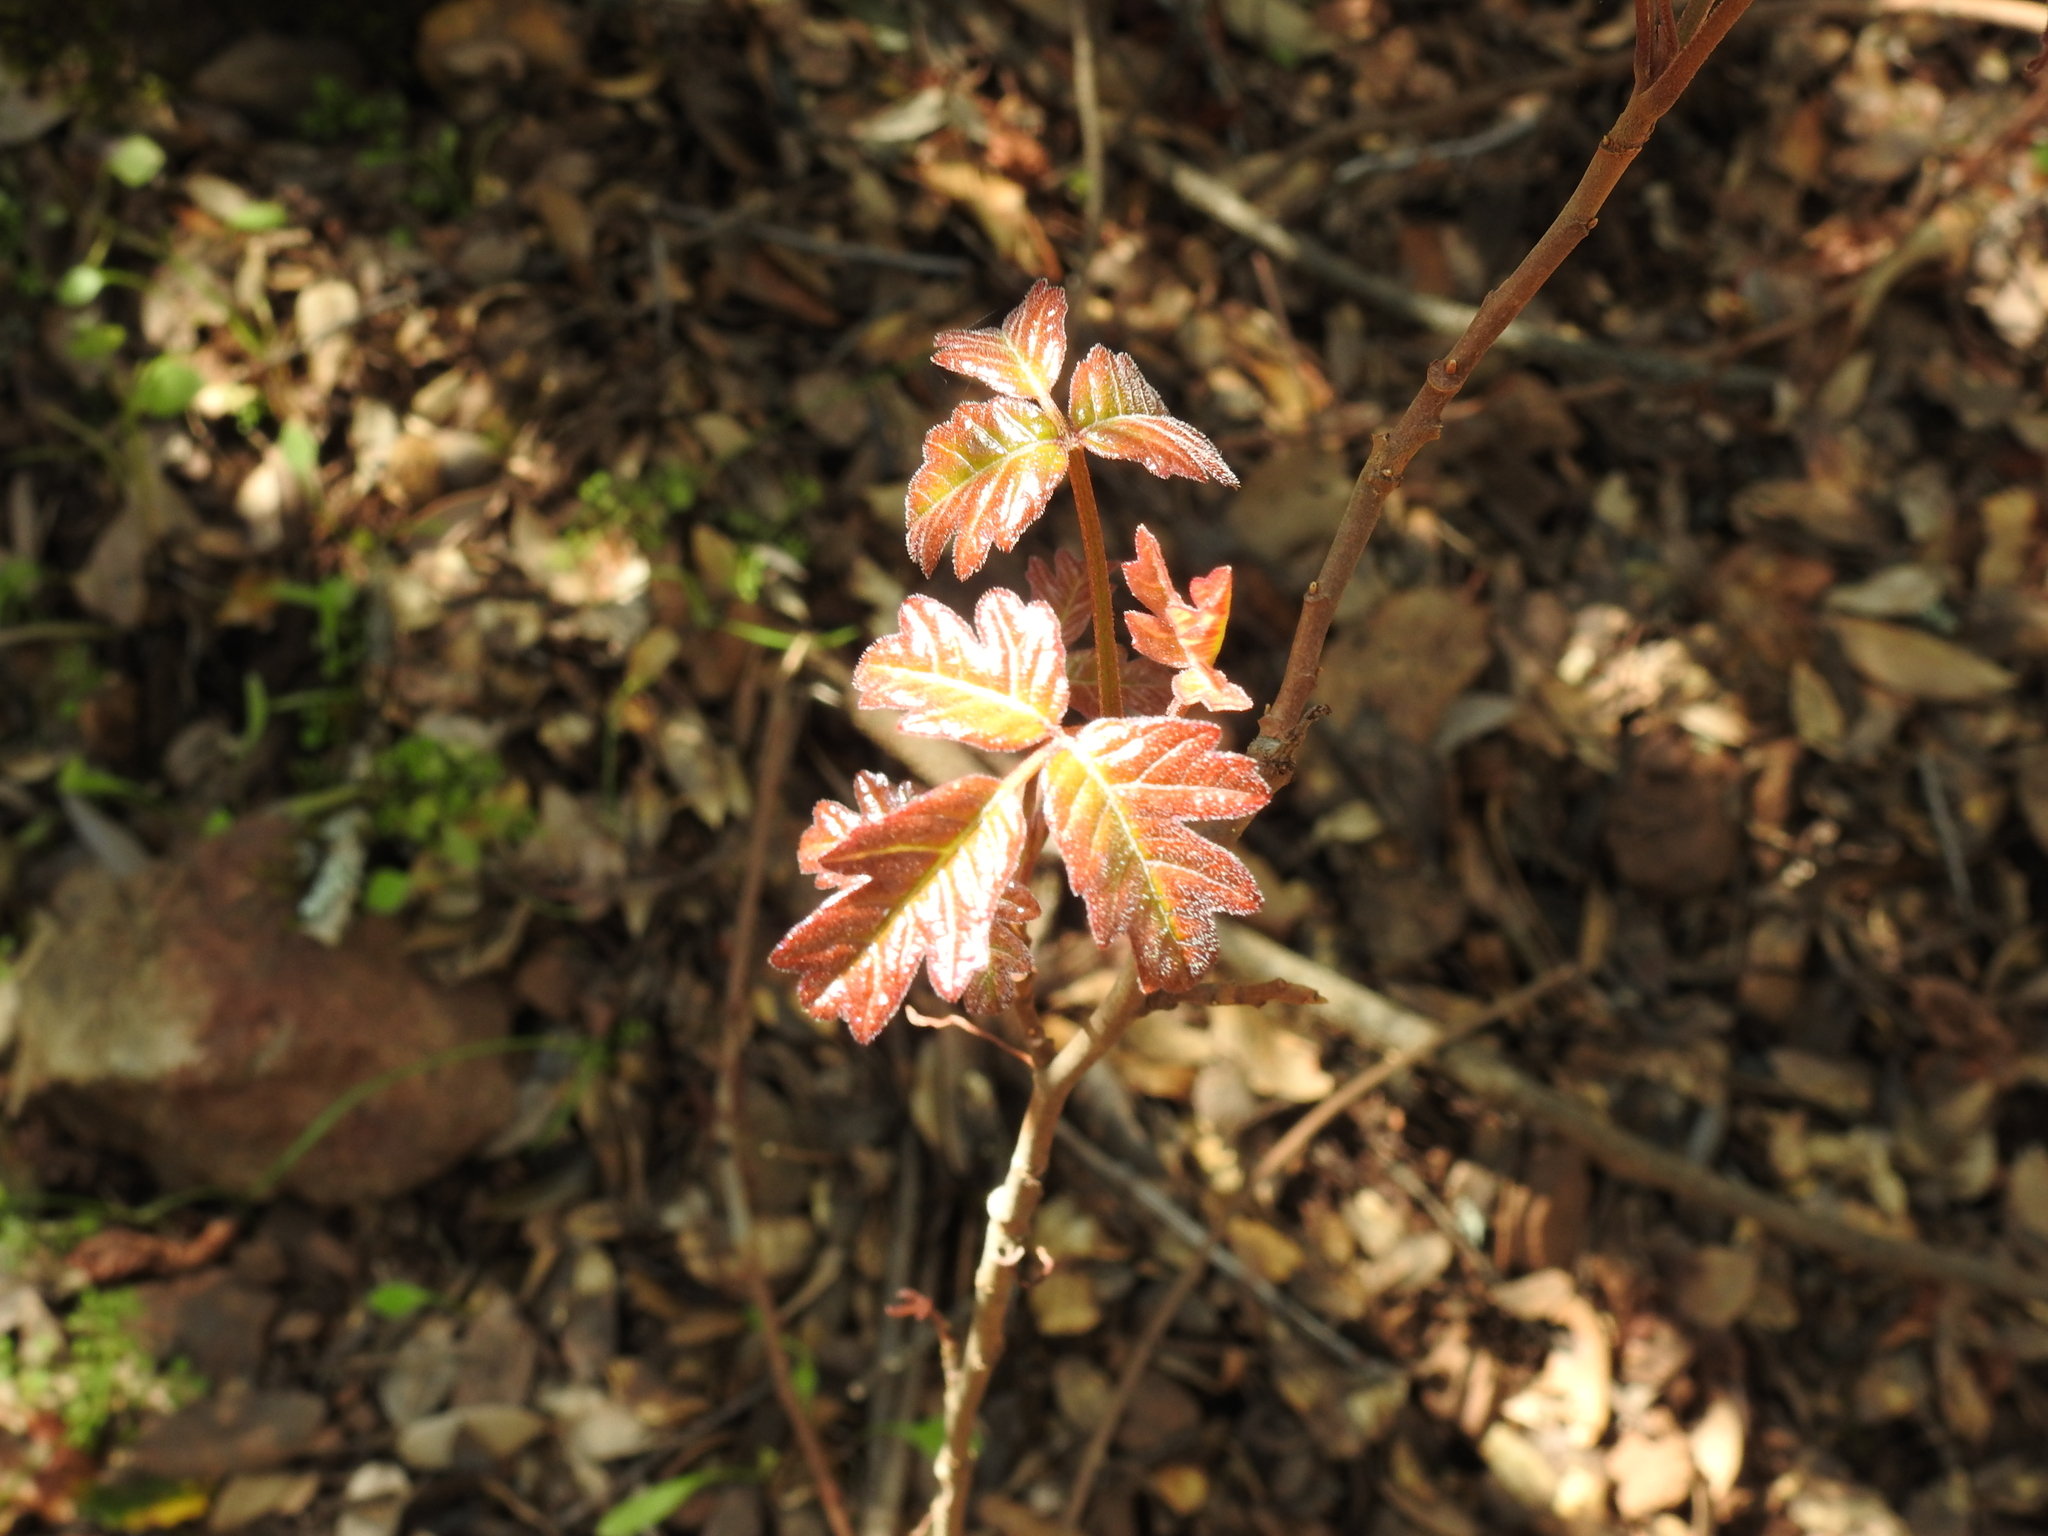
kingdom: Plantae
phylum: Tracheophyta
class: Magnoliopsida
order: Sapindales
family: Anacardiaceae
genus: Toxicodendron
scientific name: Toxicodendron diversilobum
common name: Pacific poison-oak
